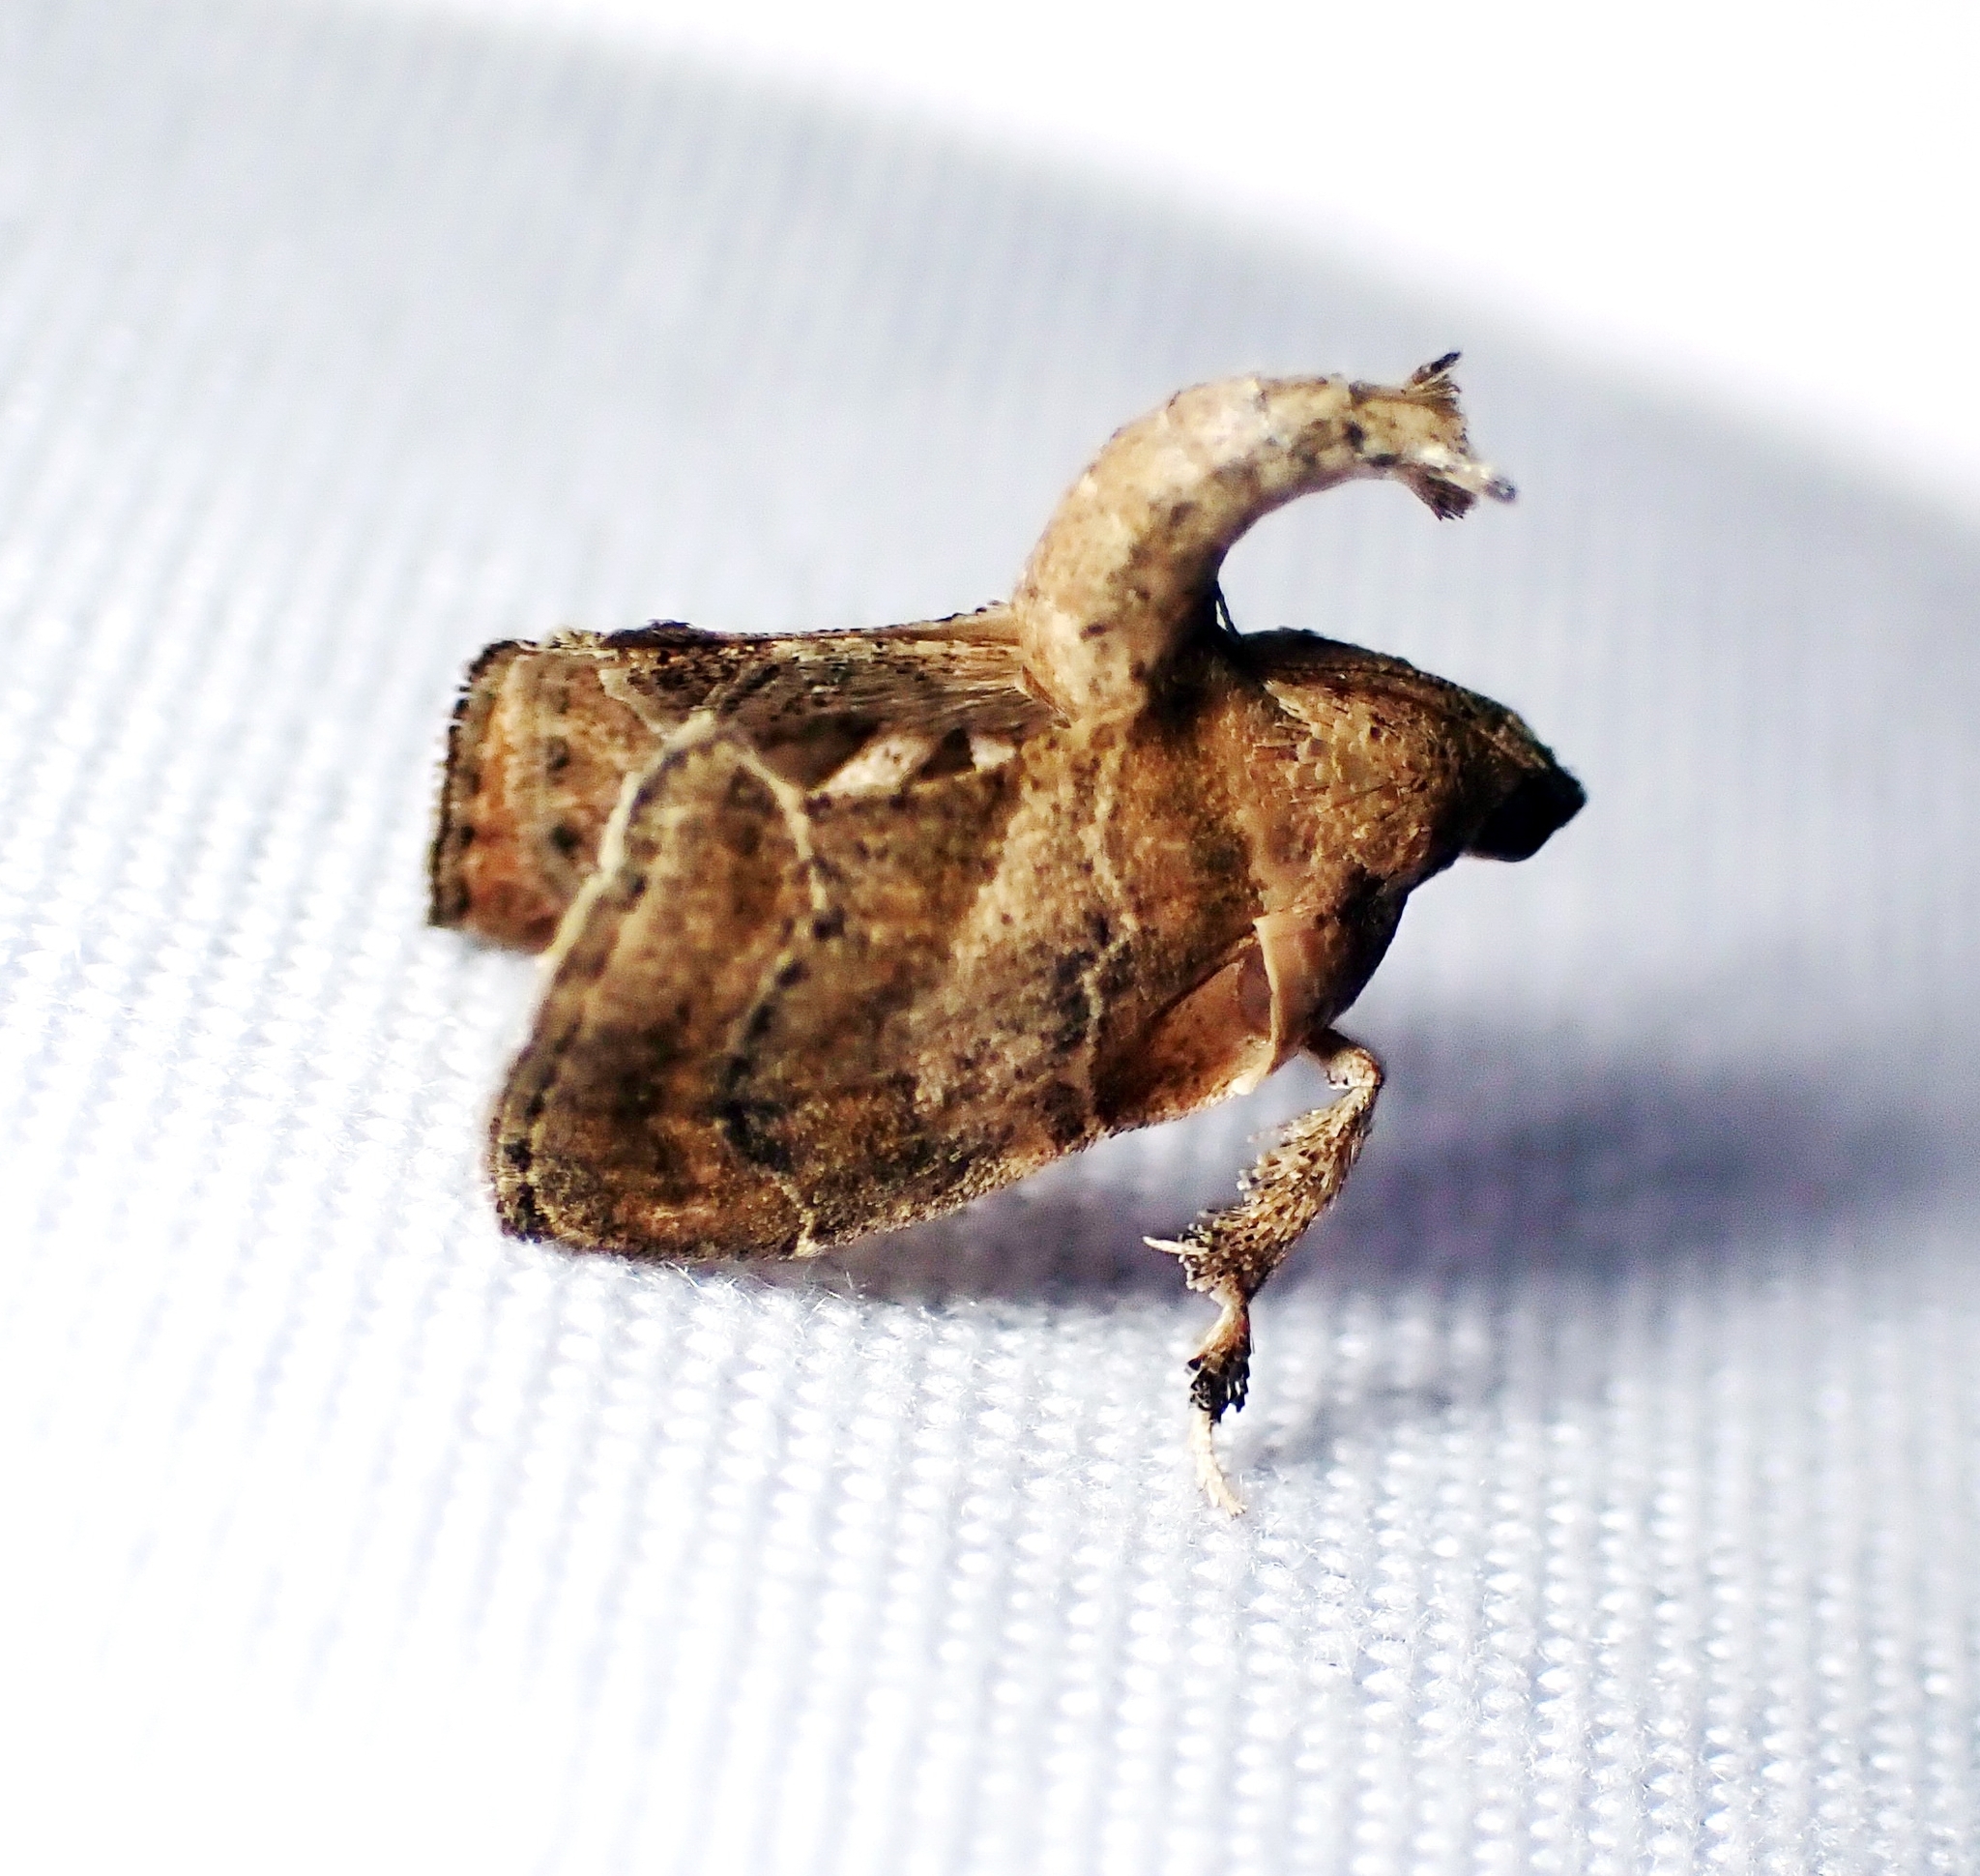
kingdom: Animalia
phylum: Arthropoda
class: Insecta
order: Lepidoptera
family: Pyralidae
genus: Tosale
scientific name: Tosale aucta
